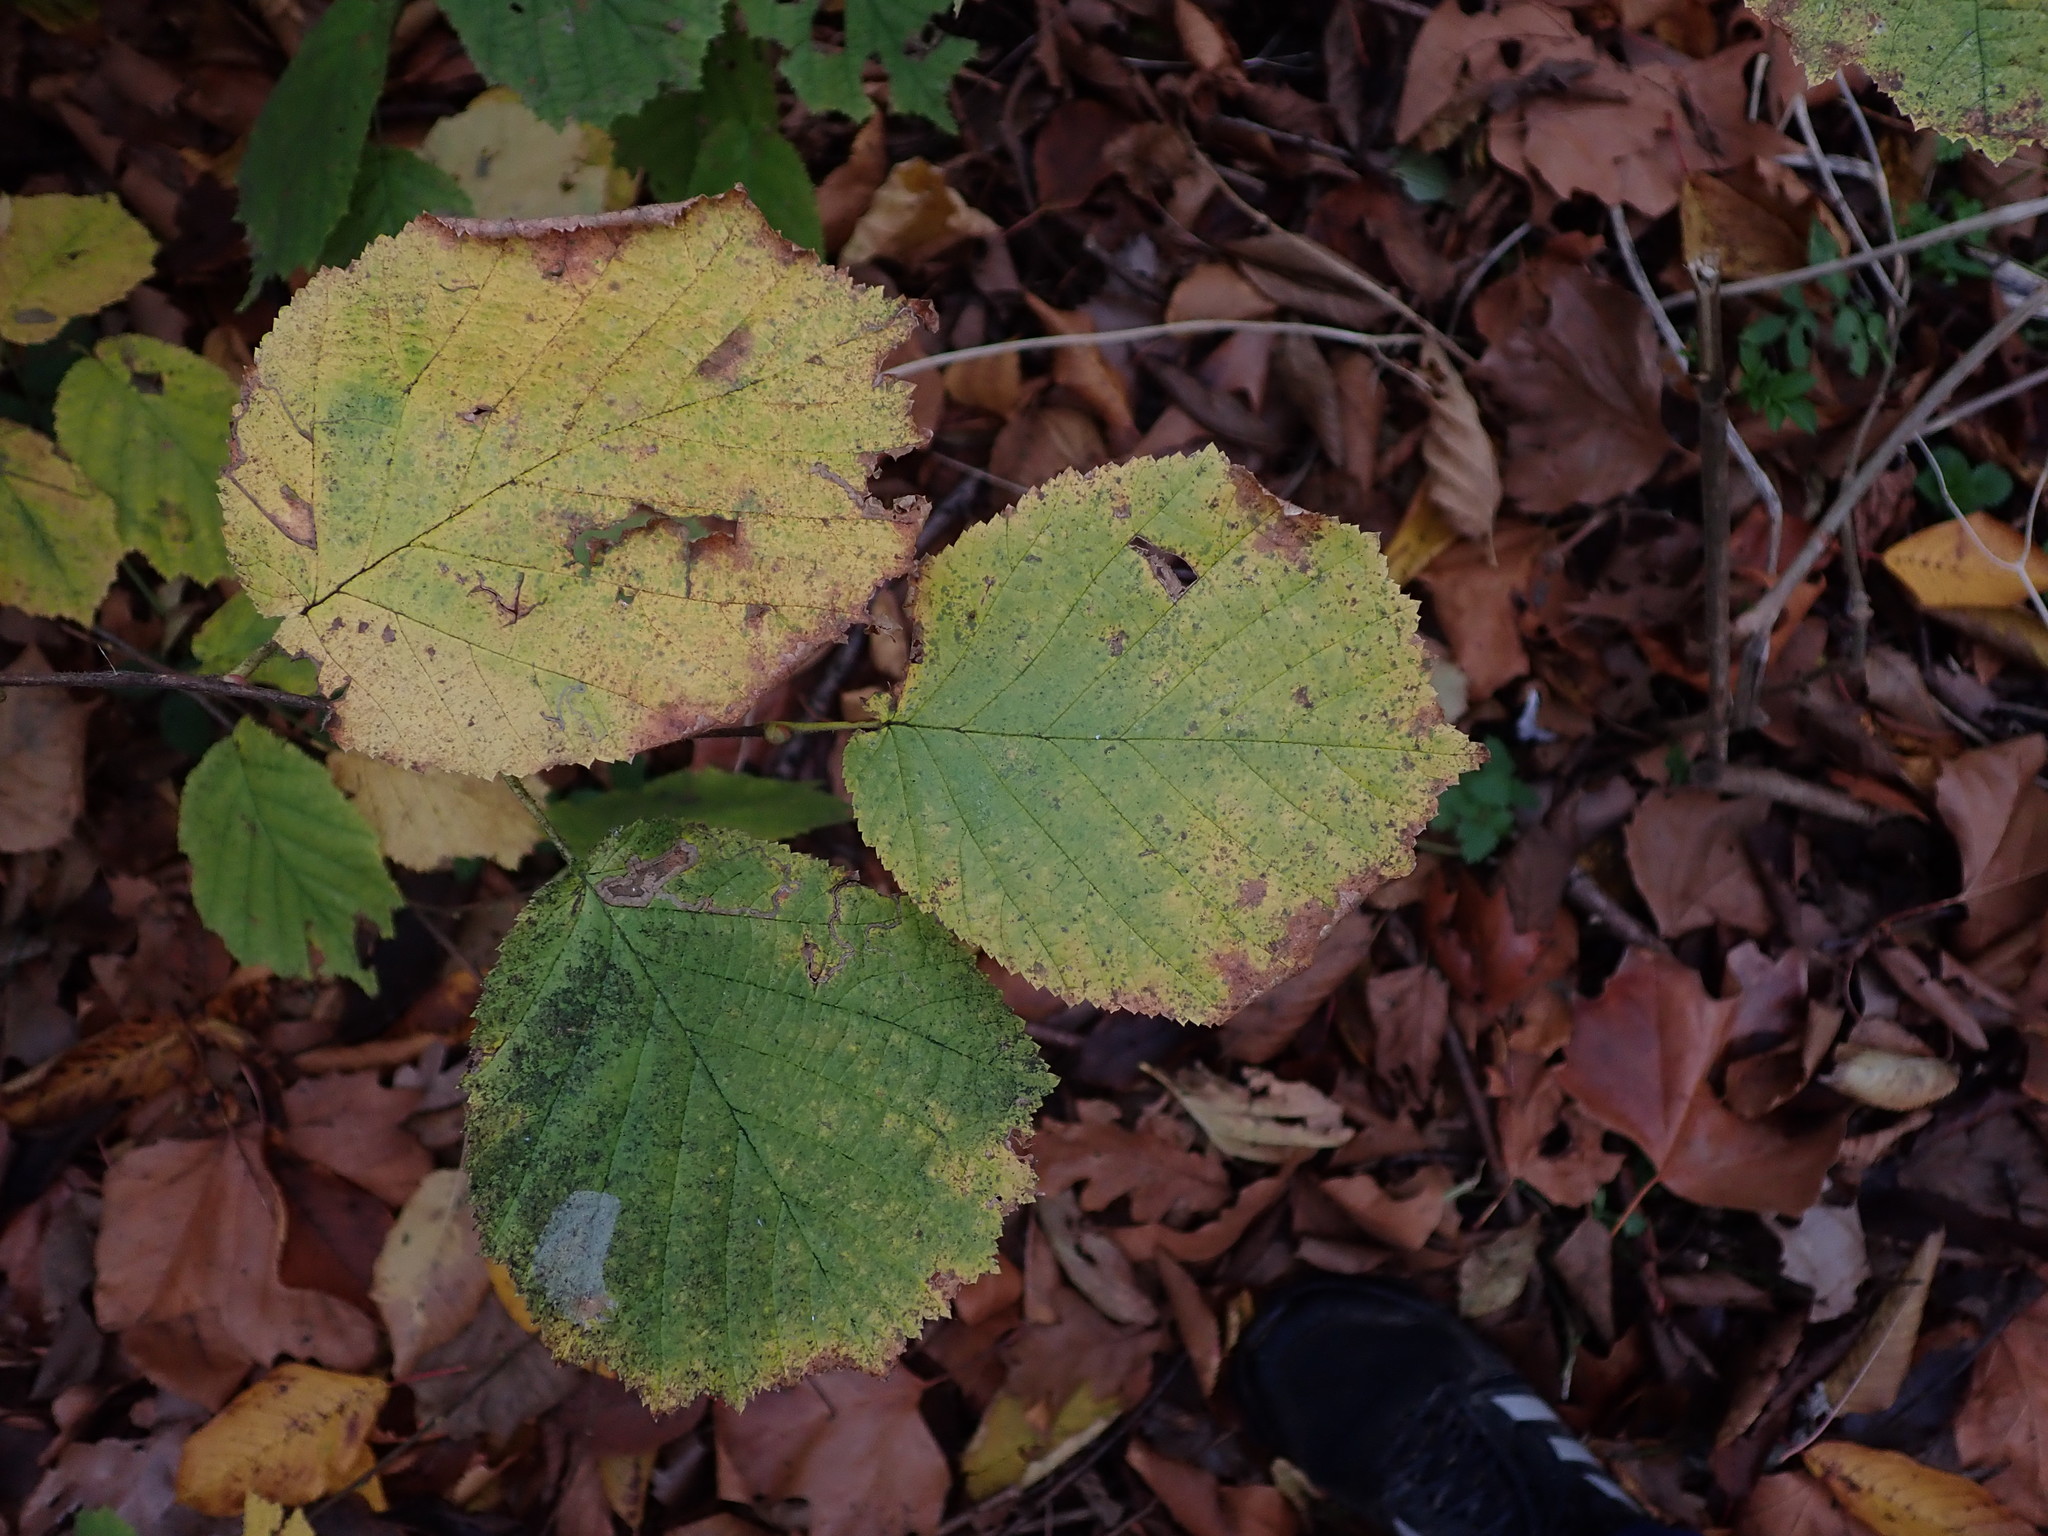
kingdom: Plantae
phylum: Tracheophyta
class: Magnoliopsida
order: Fagales
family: Betulaceae
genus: Corylus
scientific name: Corylus avellana
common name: European hazel
